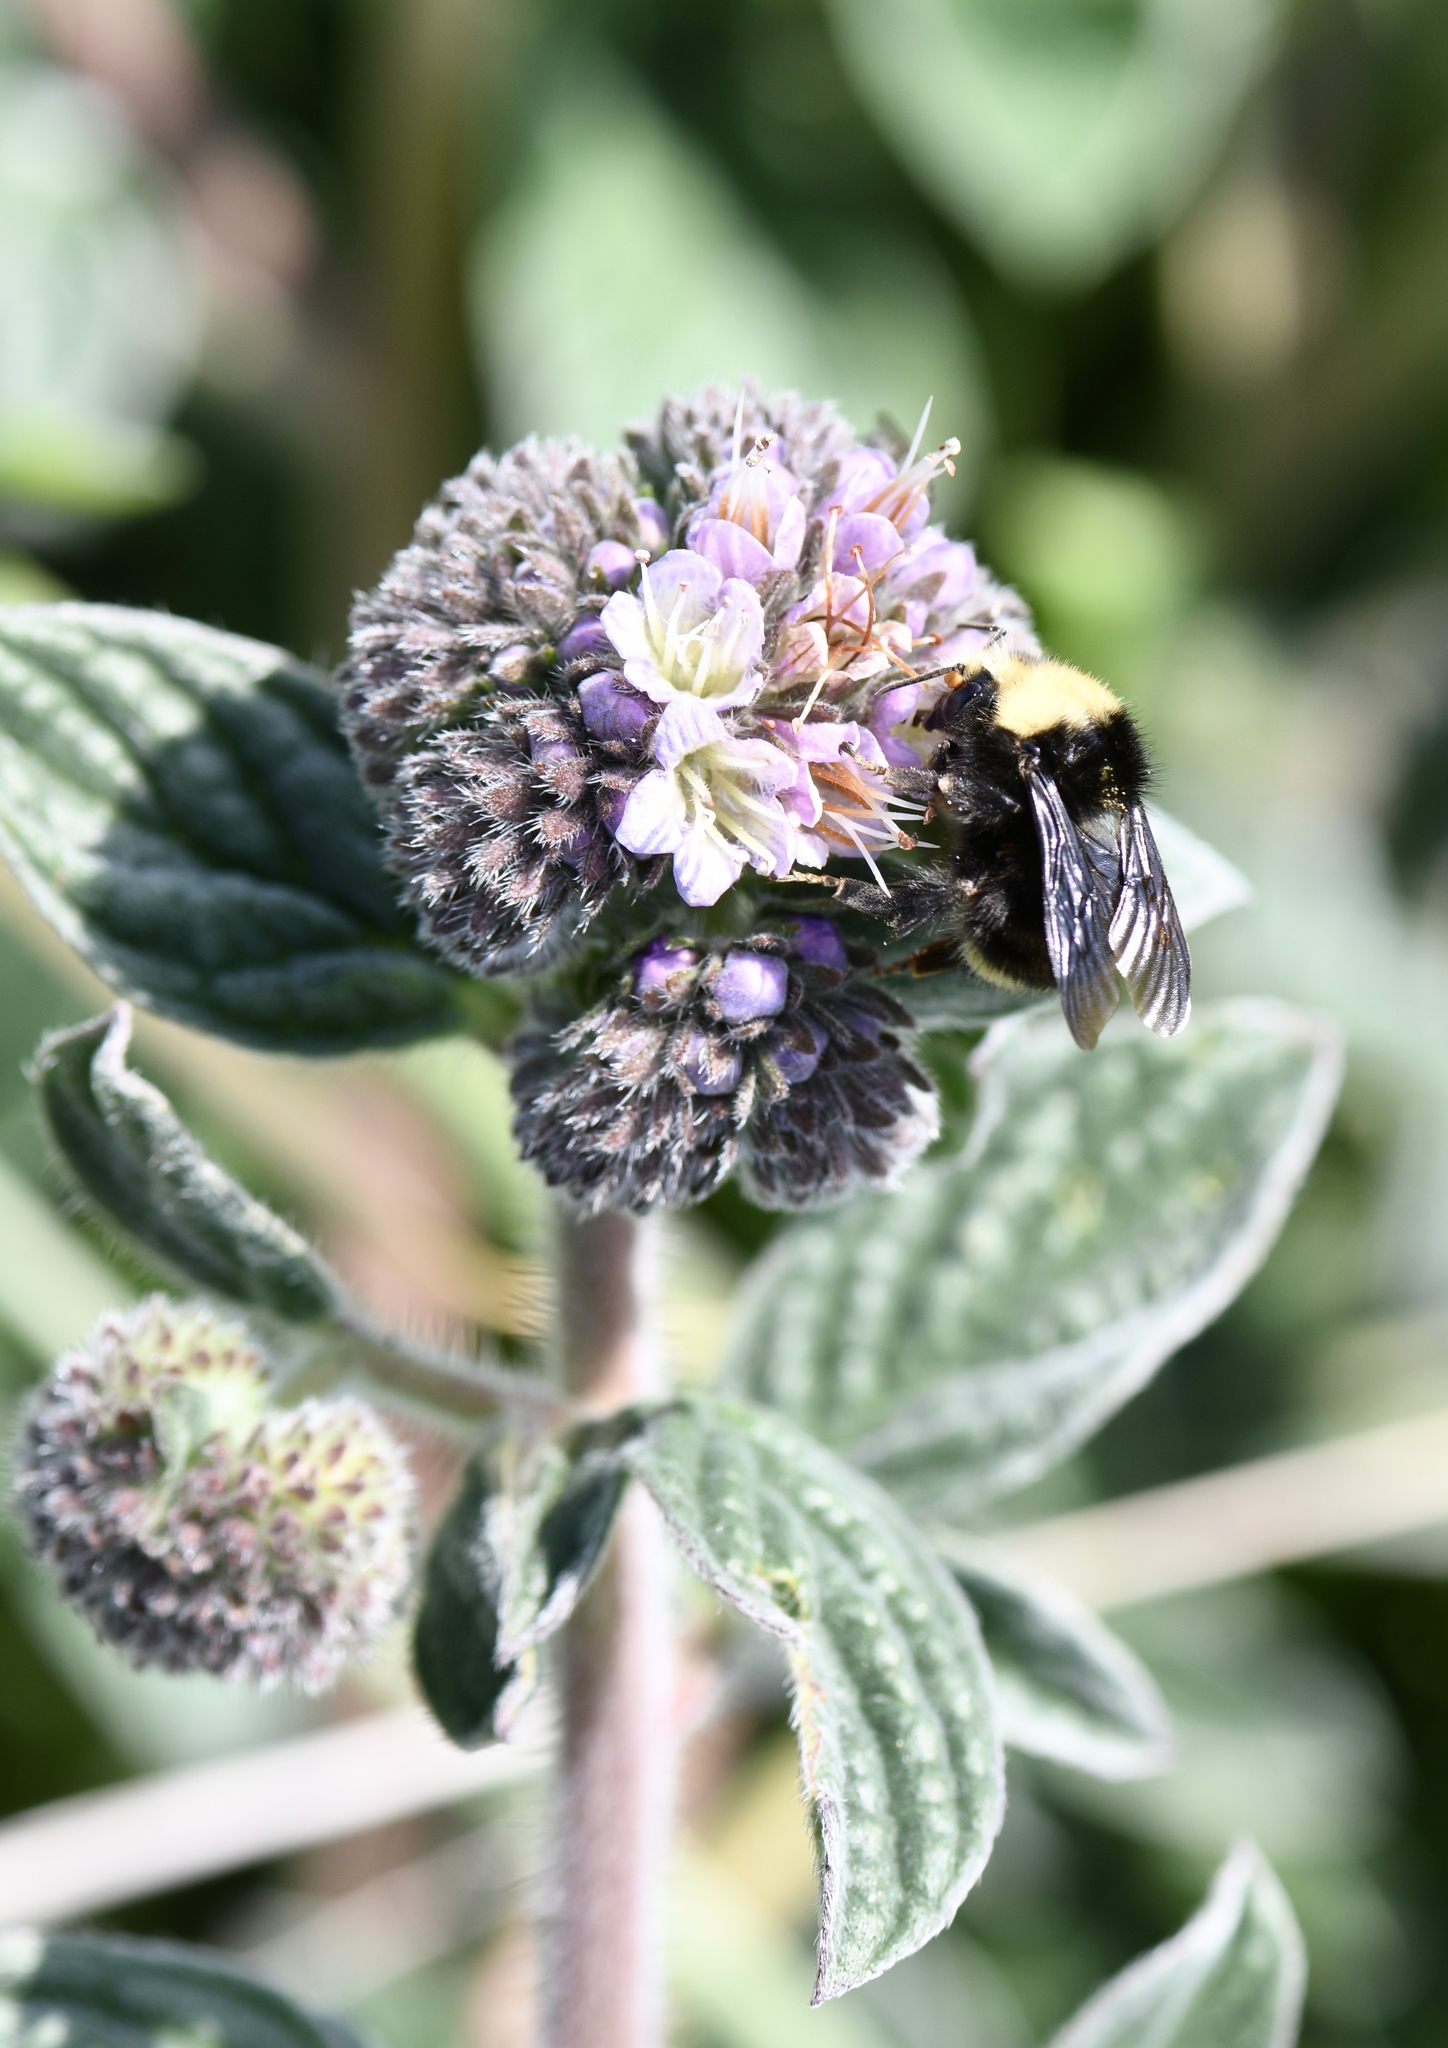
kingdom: Plantae
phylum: Tracheophyta
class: Magnoliopsida
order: Boraginales
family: Hydrophyllaceae
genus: Phacelia
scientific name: Phacelia californica
